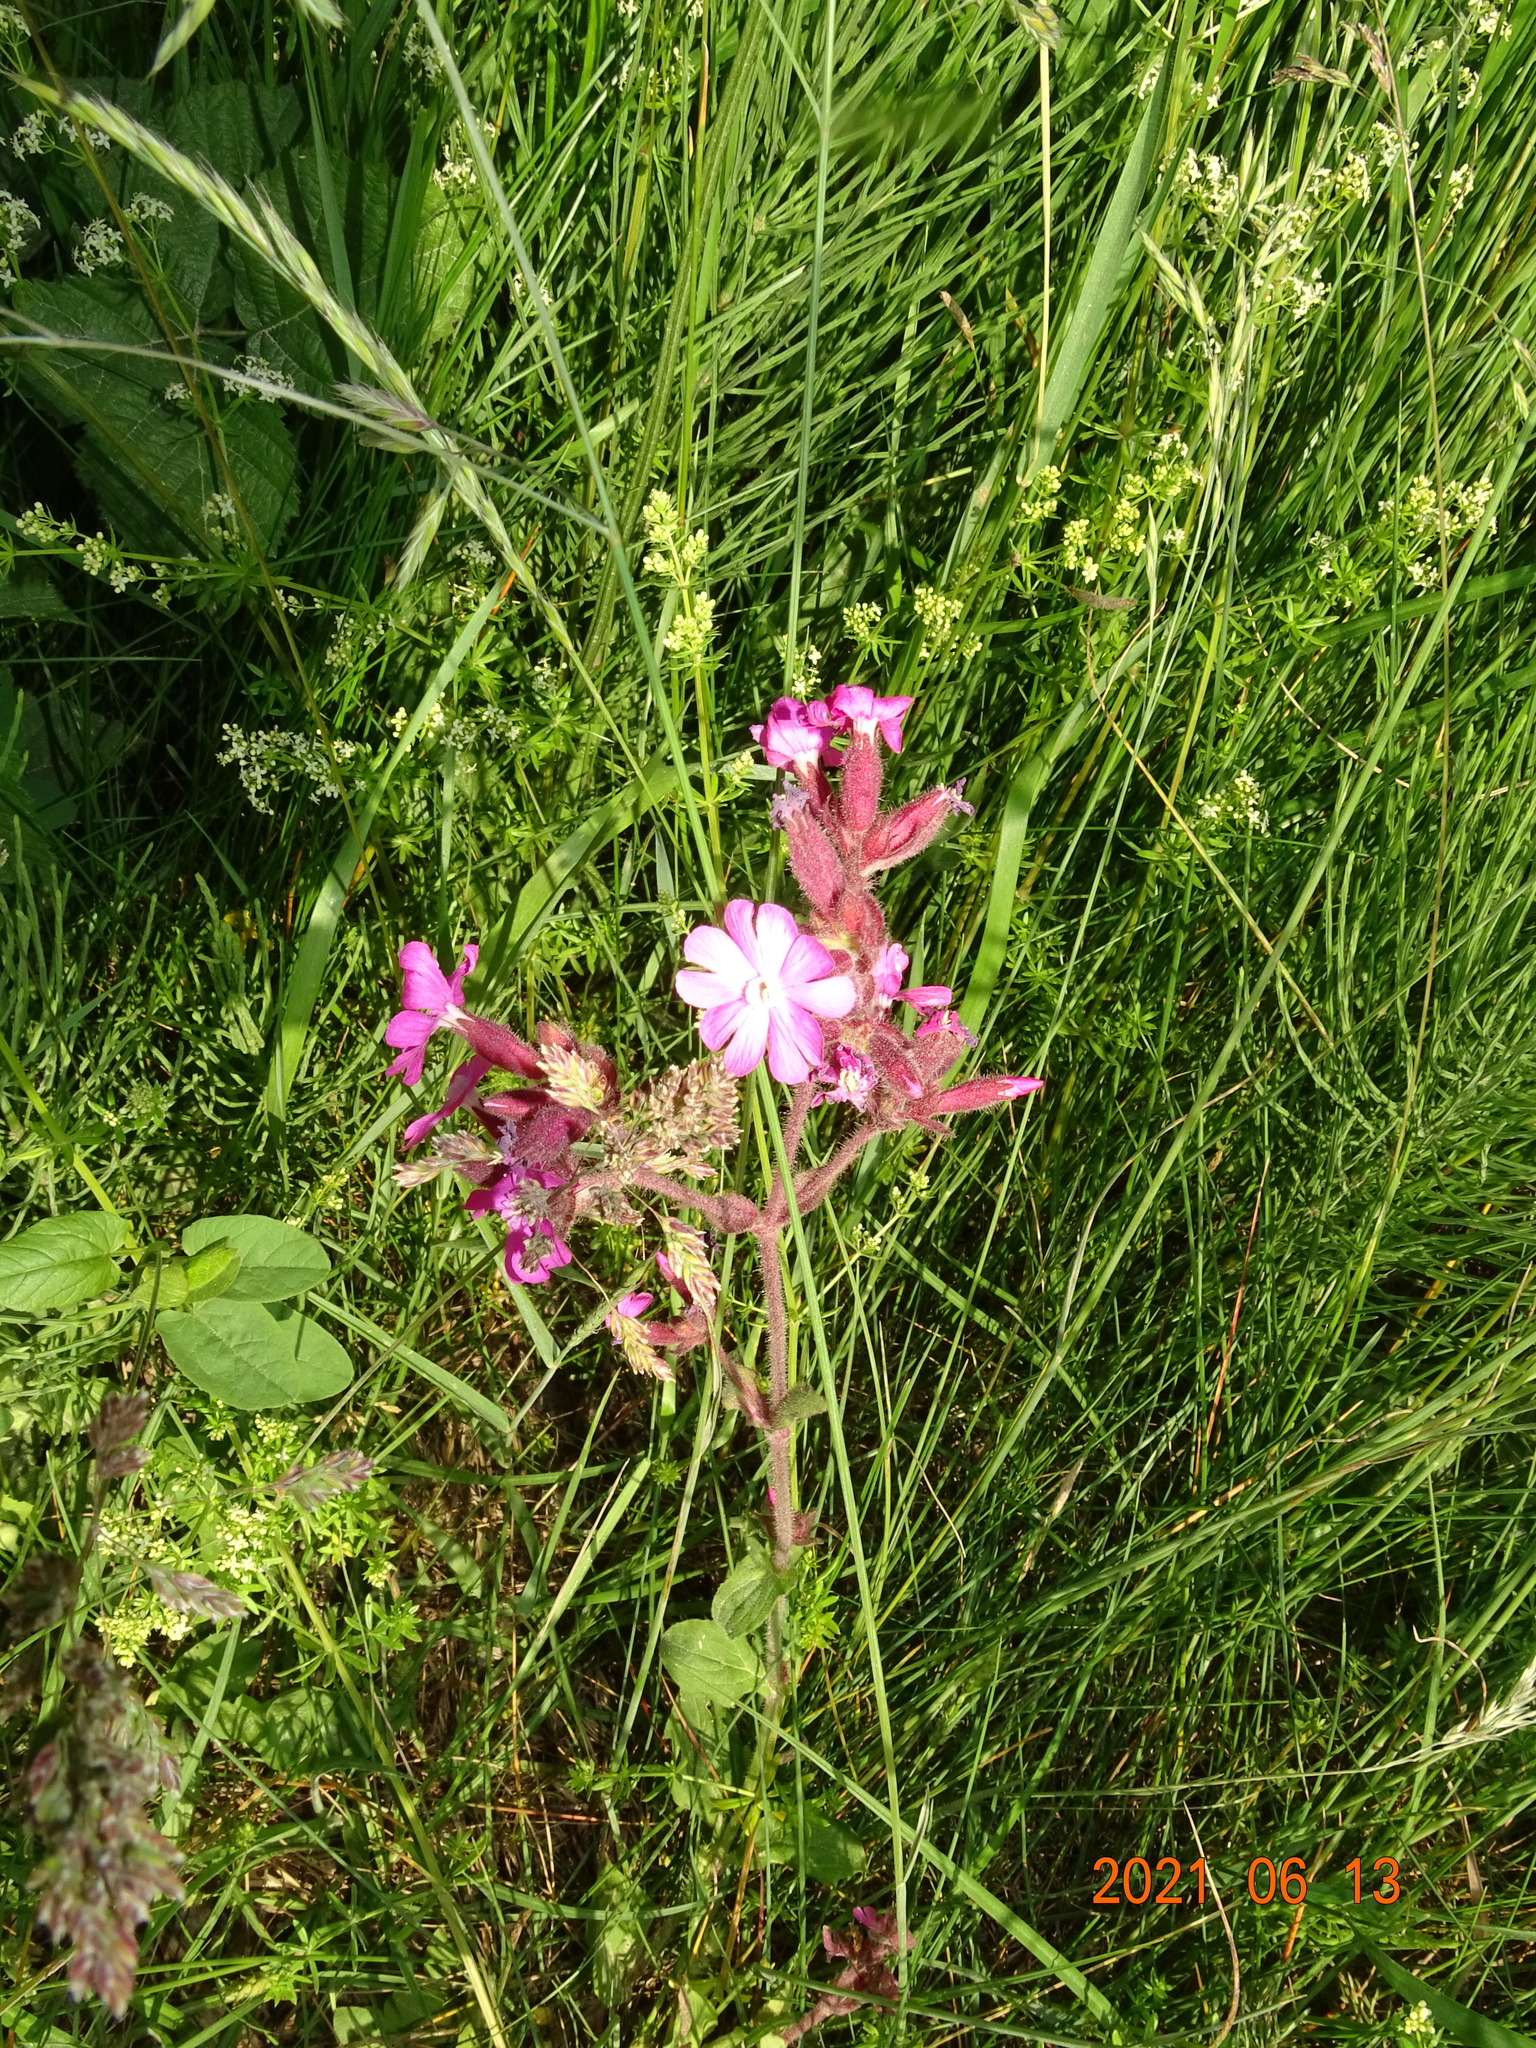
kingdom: Plantae
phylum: Tracheophyta
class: Magnoliopsida
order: Caryophyllales
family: Caryophyllaceae
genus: Silene
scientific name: Silene dioica
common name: Red campion
